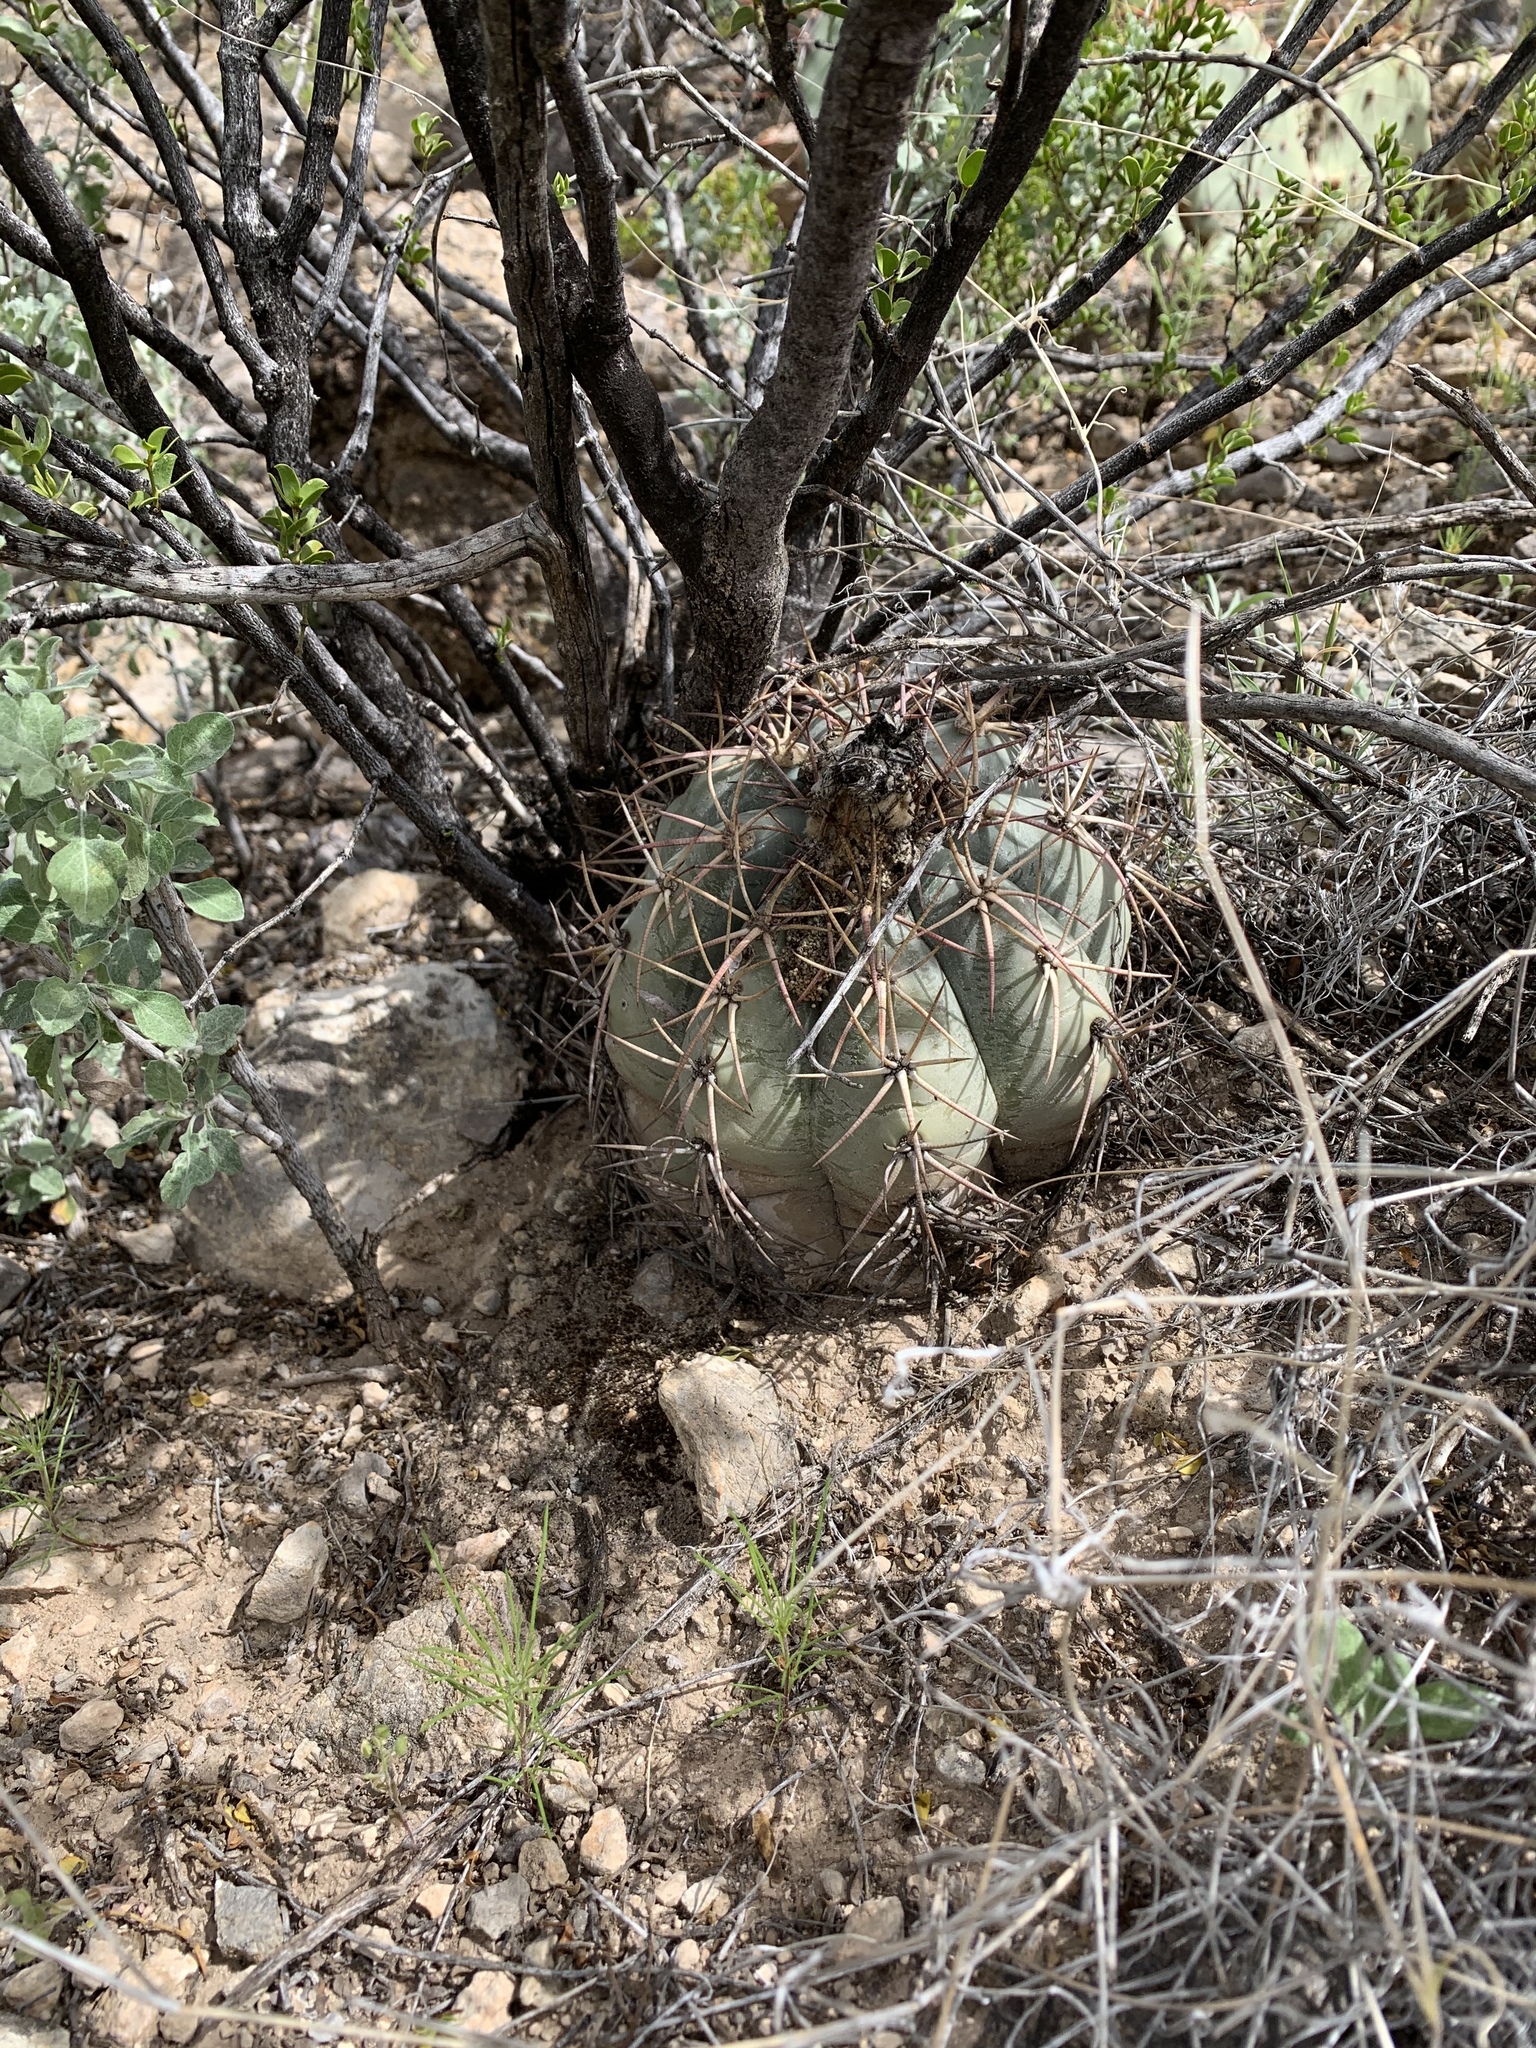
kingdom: Plantae
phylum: Tracheophyta
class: Magnoliopsida
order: Caryophyllales
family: Cactaceae
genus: Echinocactus
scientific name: Echinocactus horizonthalonius
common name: Devilshead
